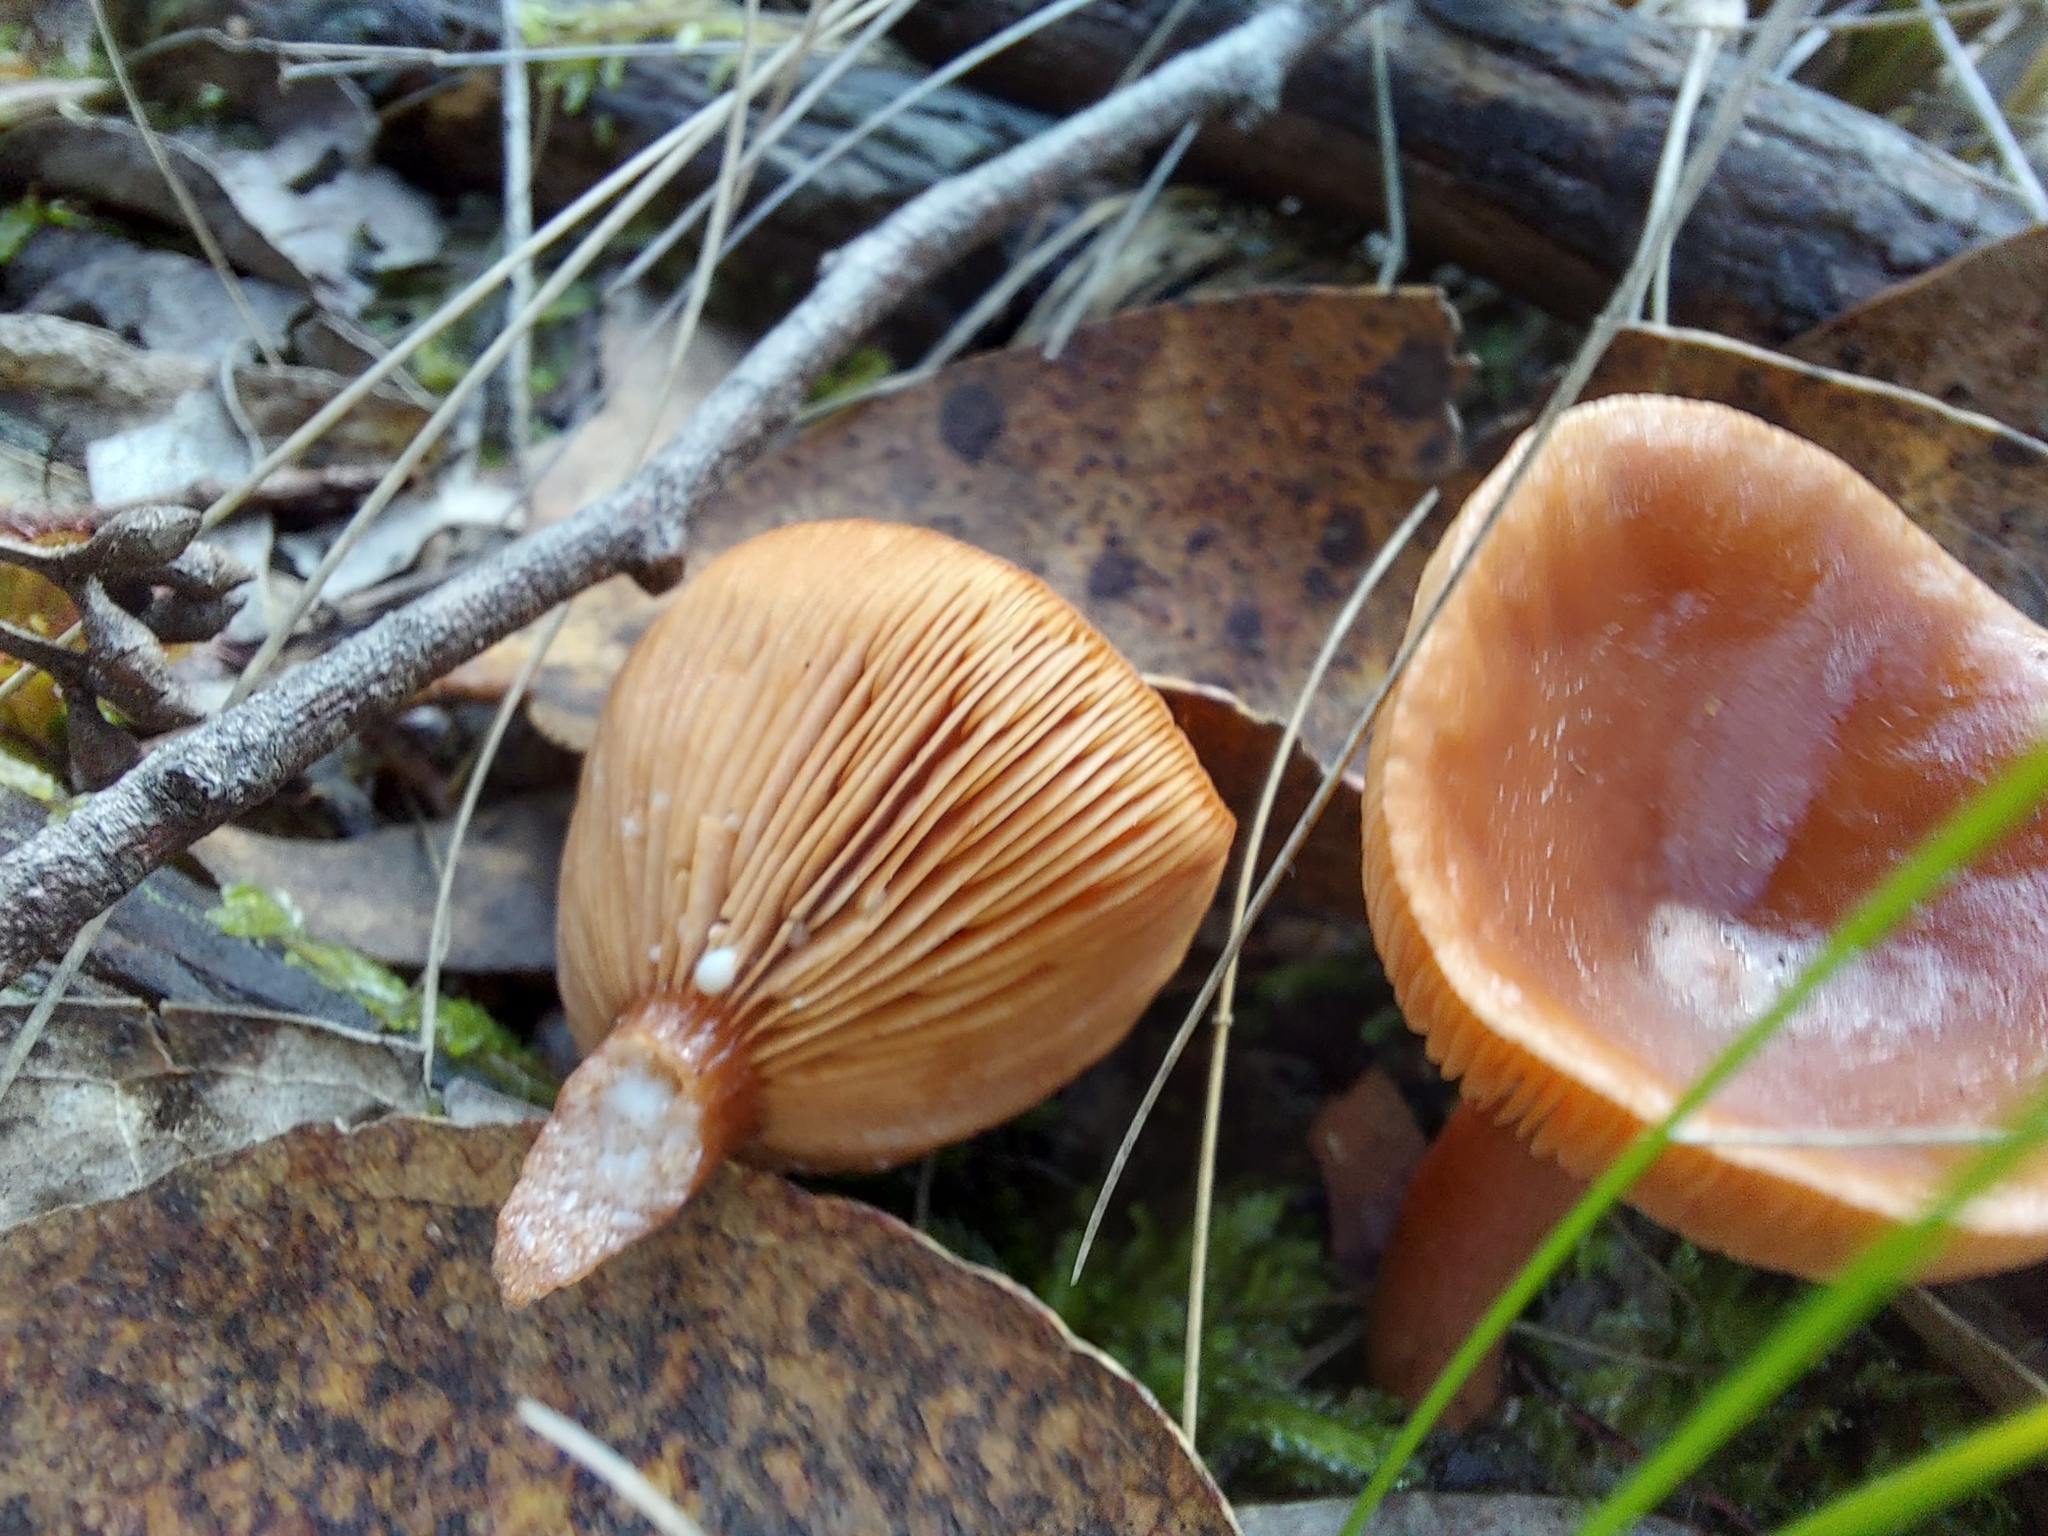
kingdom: Fungi
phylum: Basidiomycota
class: Agaricomycetes
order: Russulales
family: Russulaceae
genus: Lactarius
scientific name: Lactarius eucalypti
